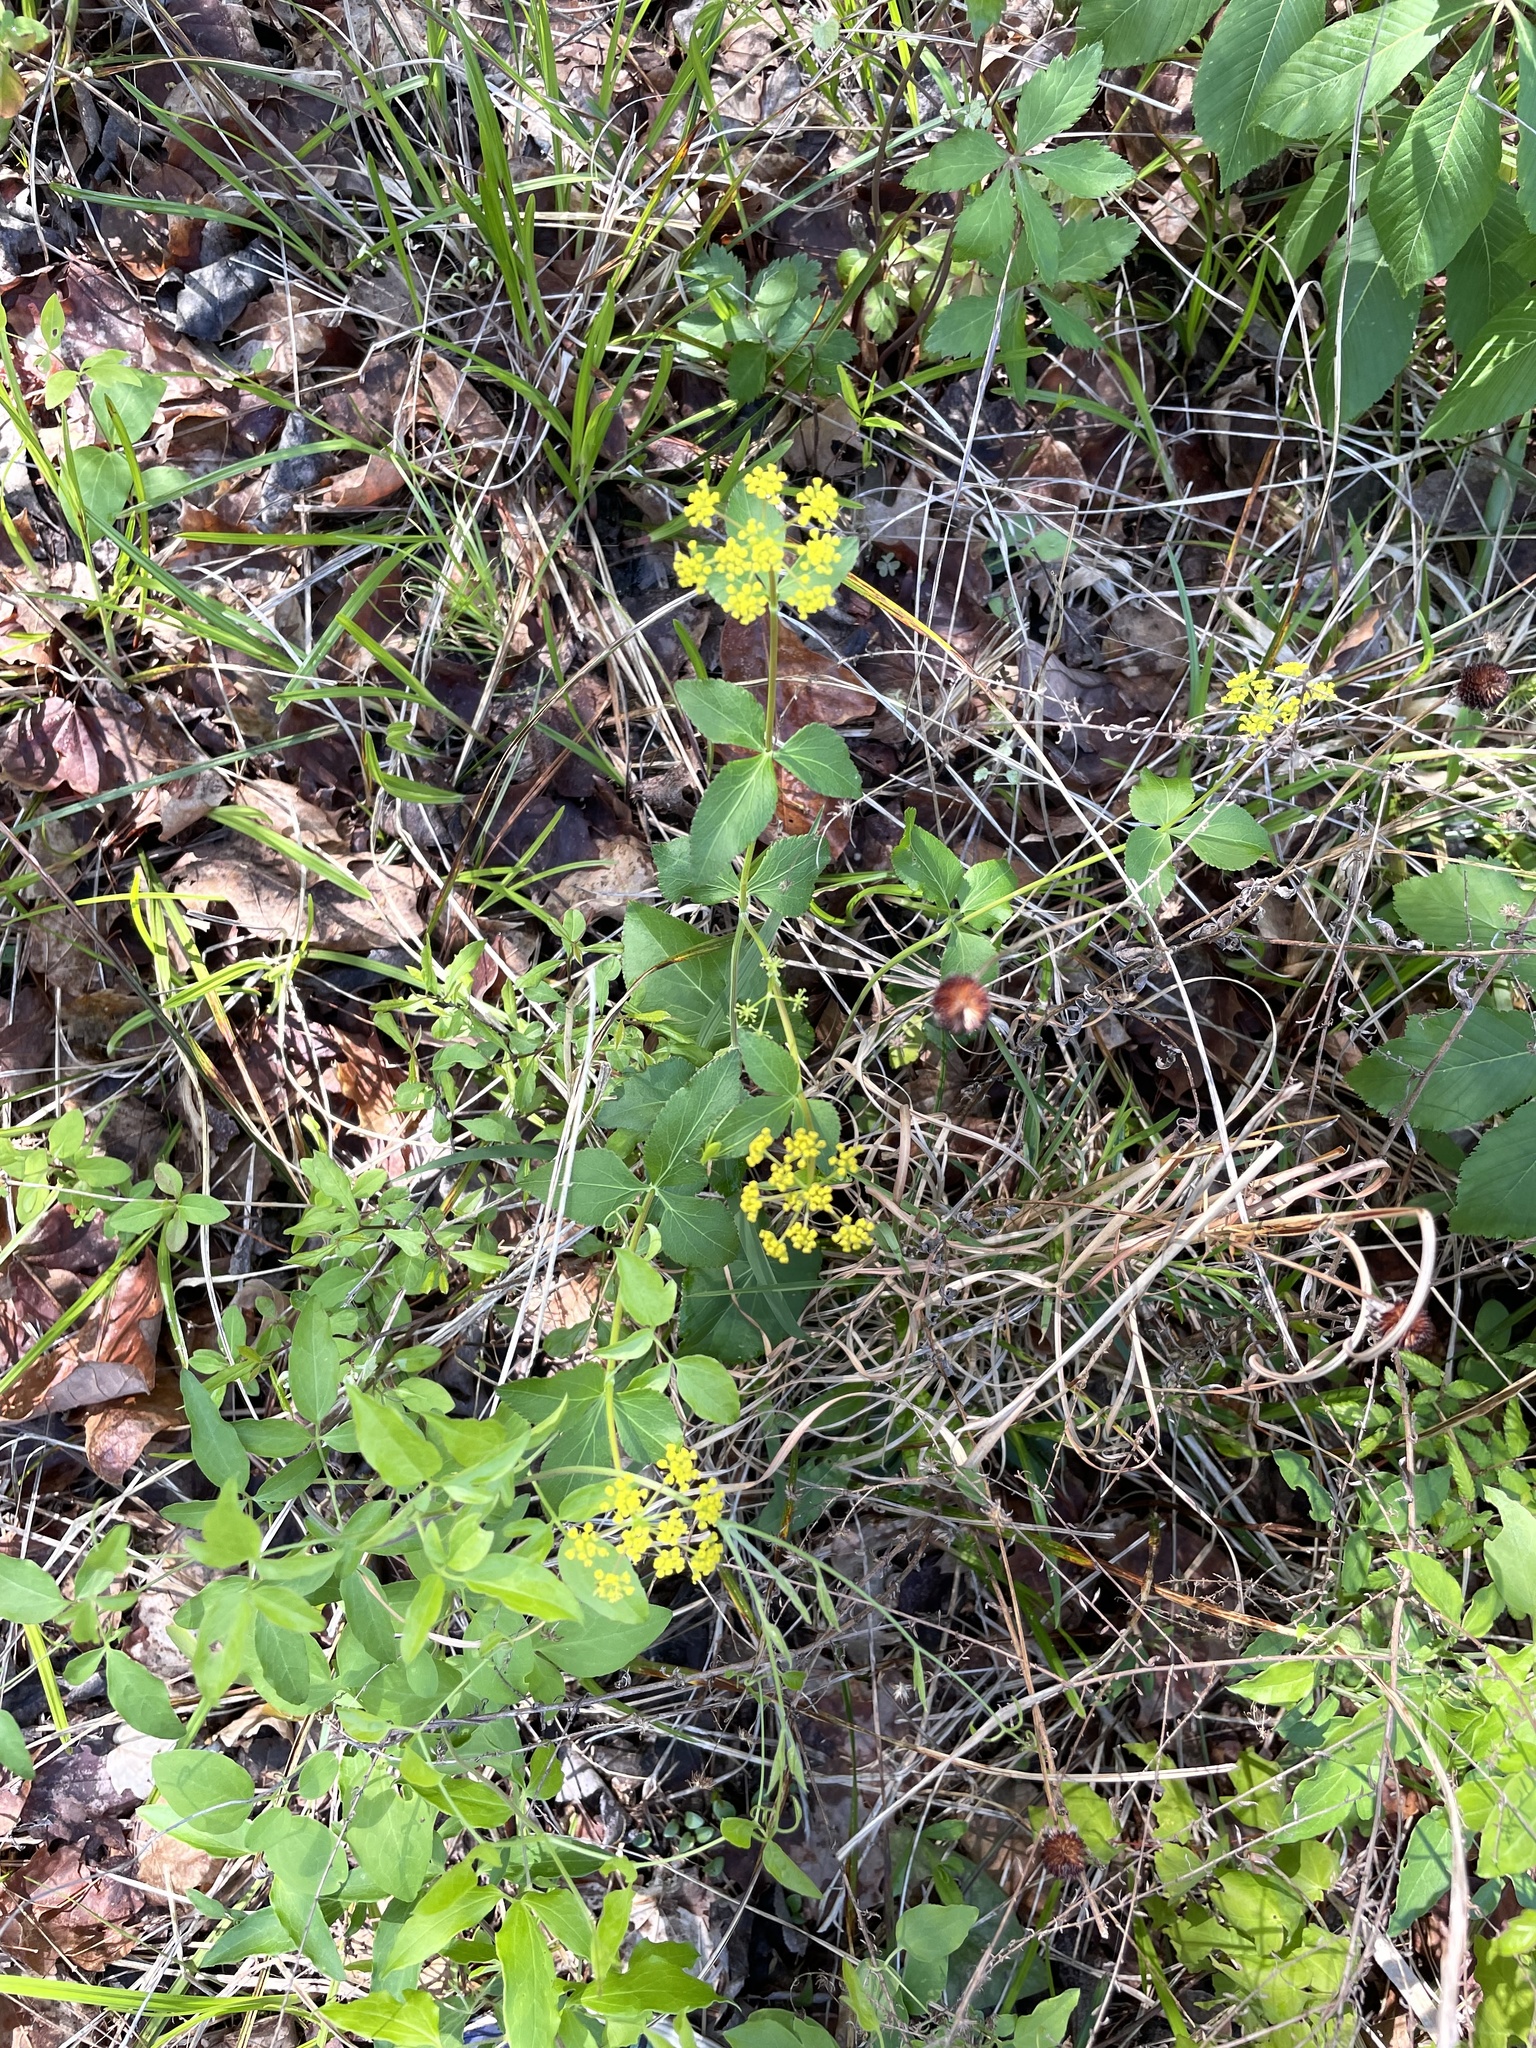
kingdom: Plantae
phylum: Tracheophyta
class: Magnoliopsida
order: Apiales
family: Apiaceae
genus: Zizia
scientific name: Zizia aptera
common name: Heart-leaved alexanders
